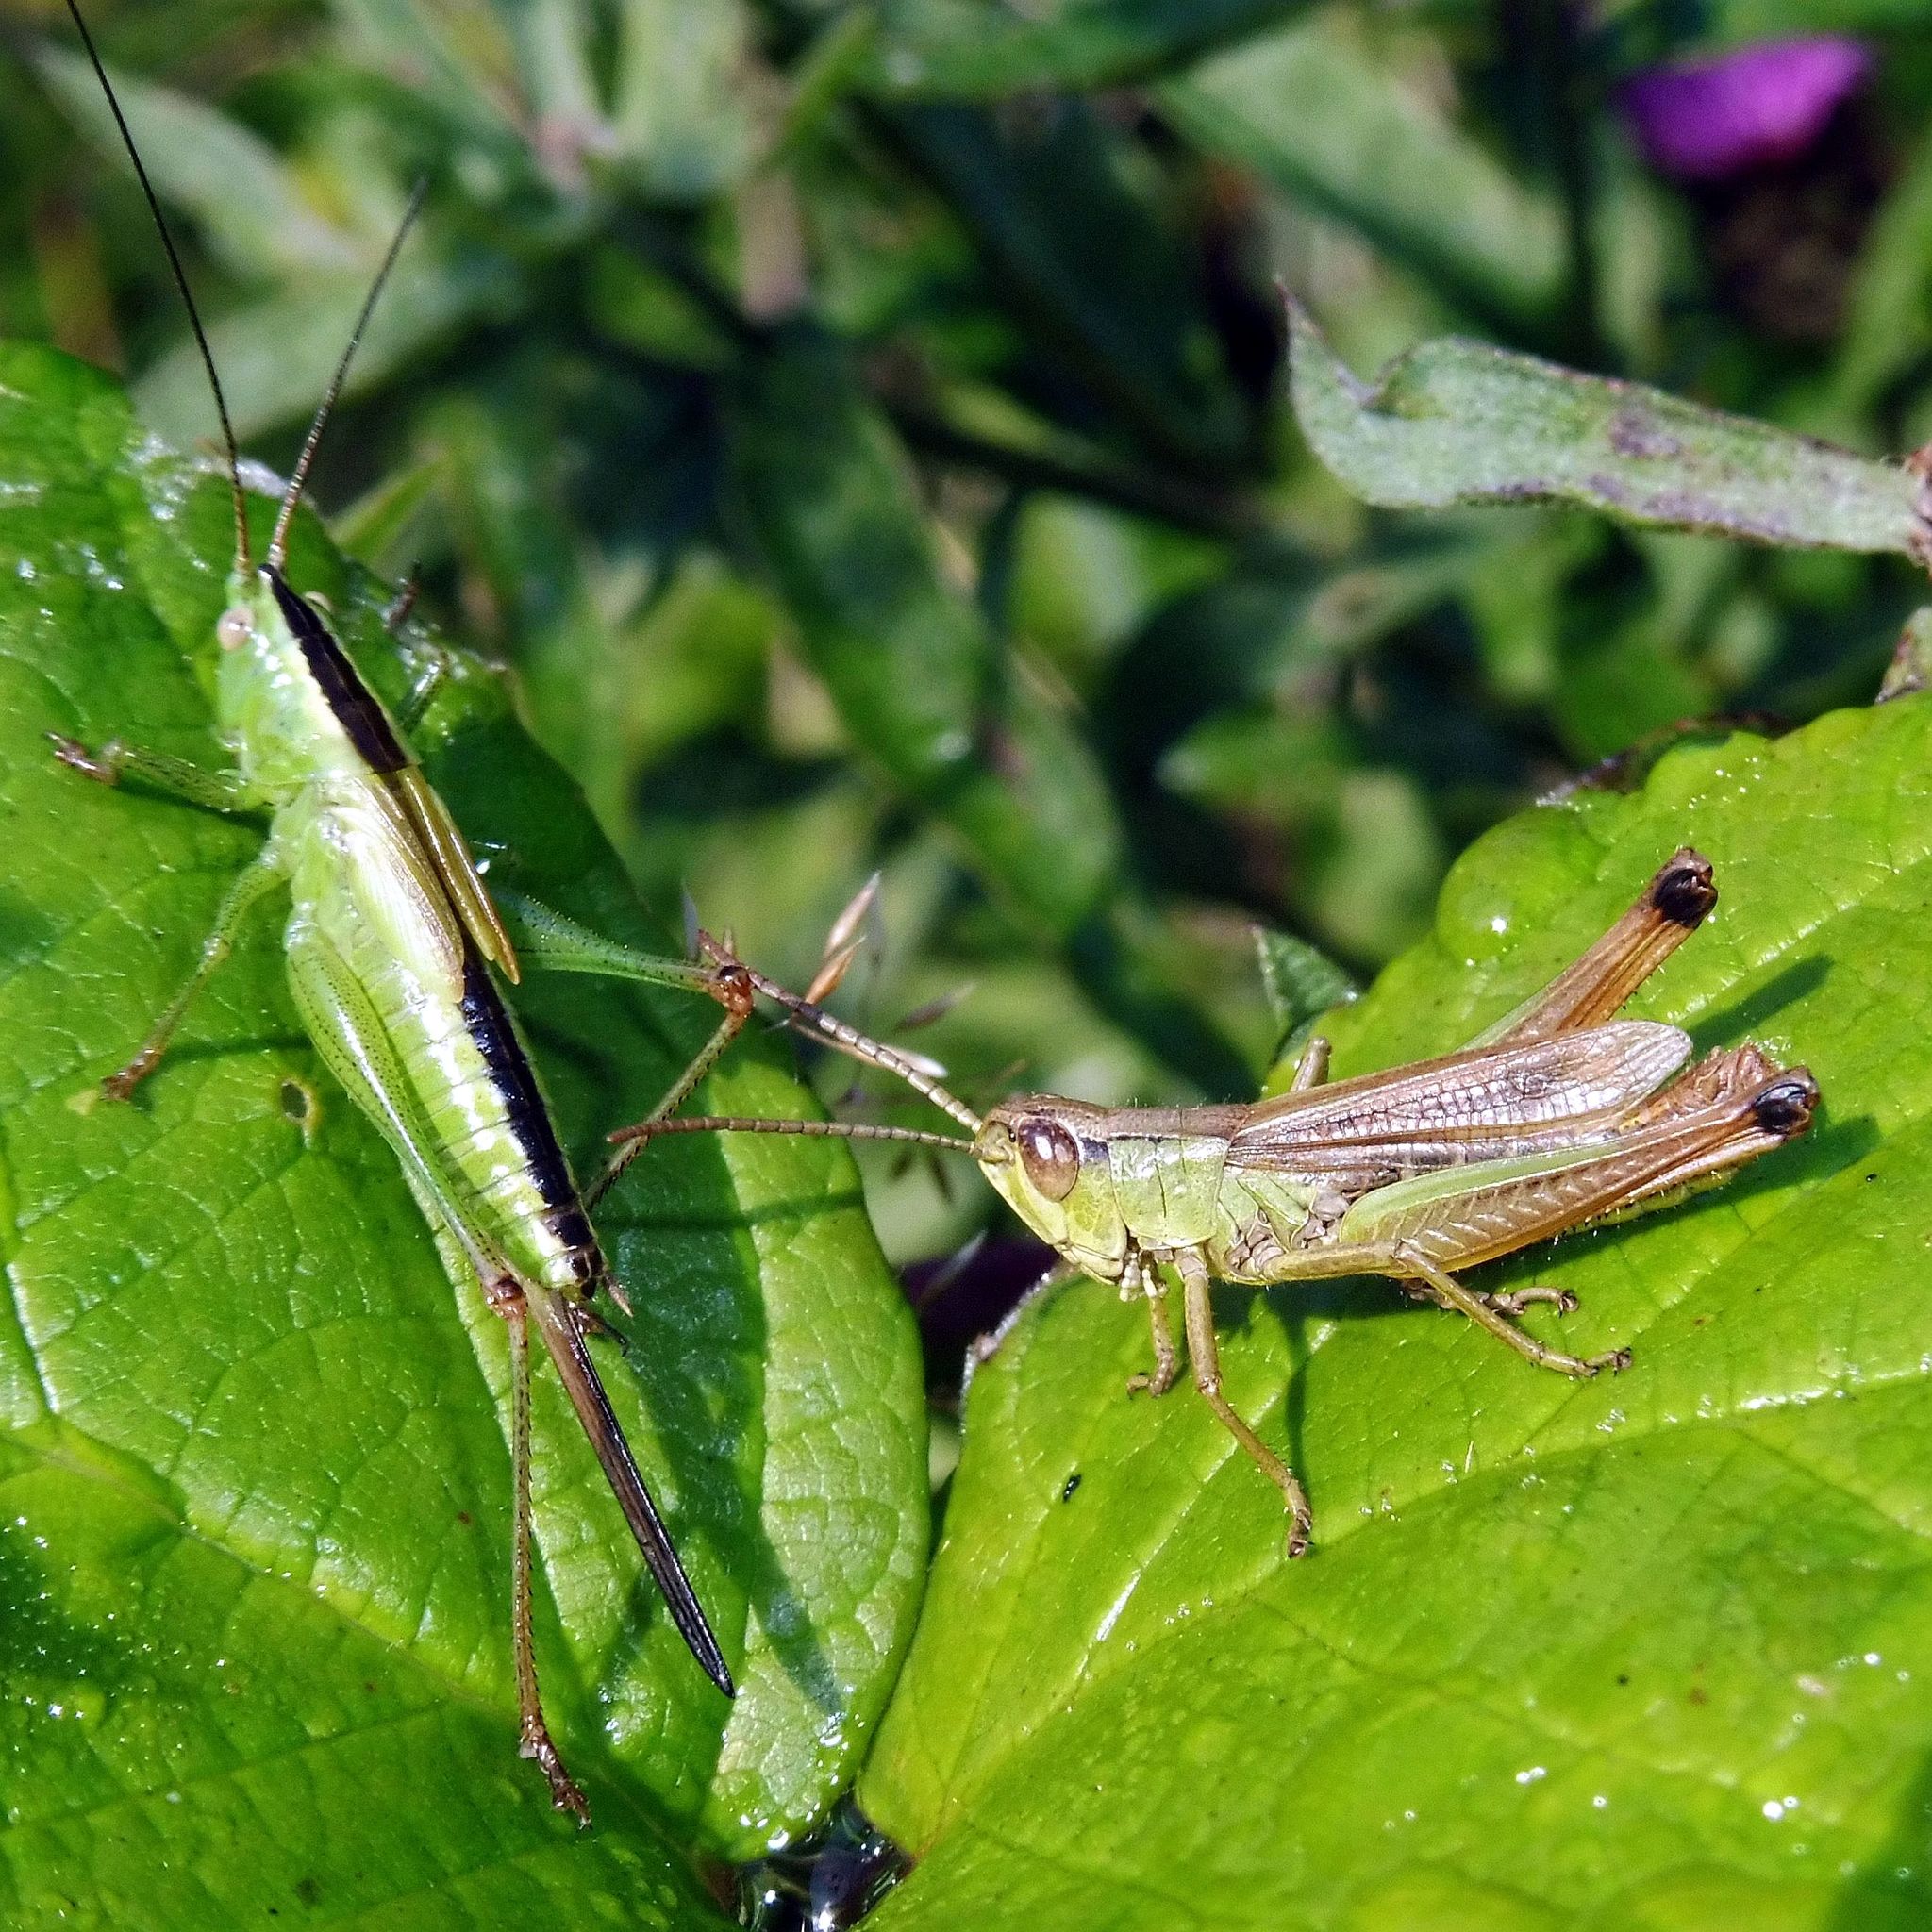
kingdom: Animalia
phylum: Arthropoda
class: Insecta
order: Orthoptera
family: Tettigoniidae
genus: Conocephalus
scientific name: Conocephalus fuscus
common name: Long-winged conehead
